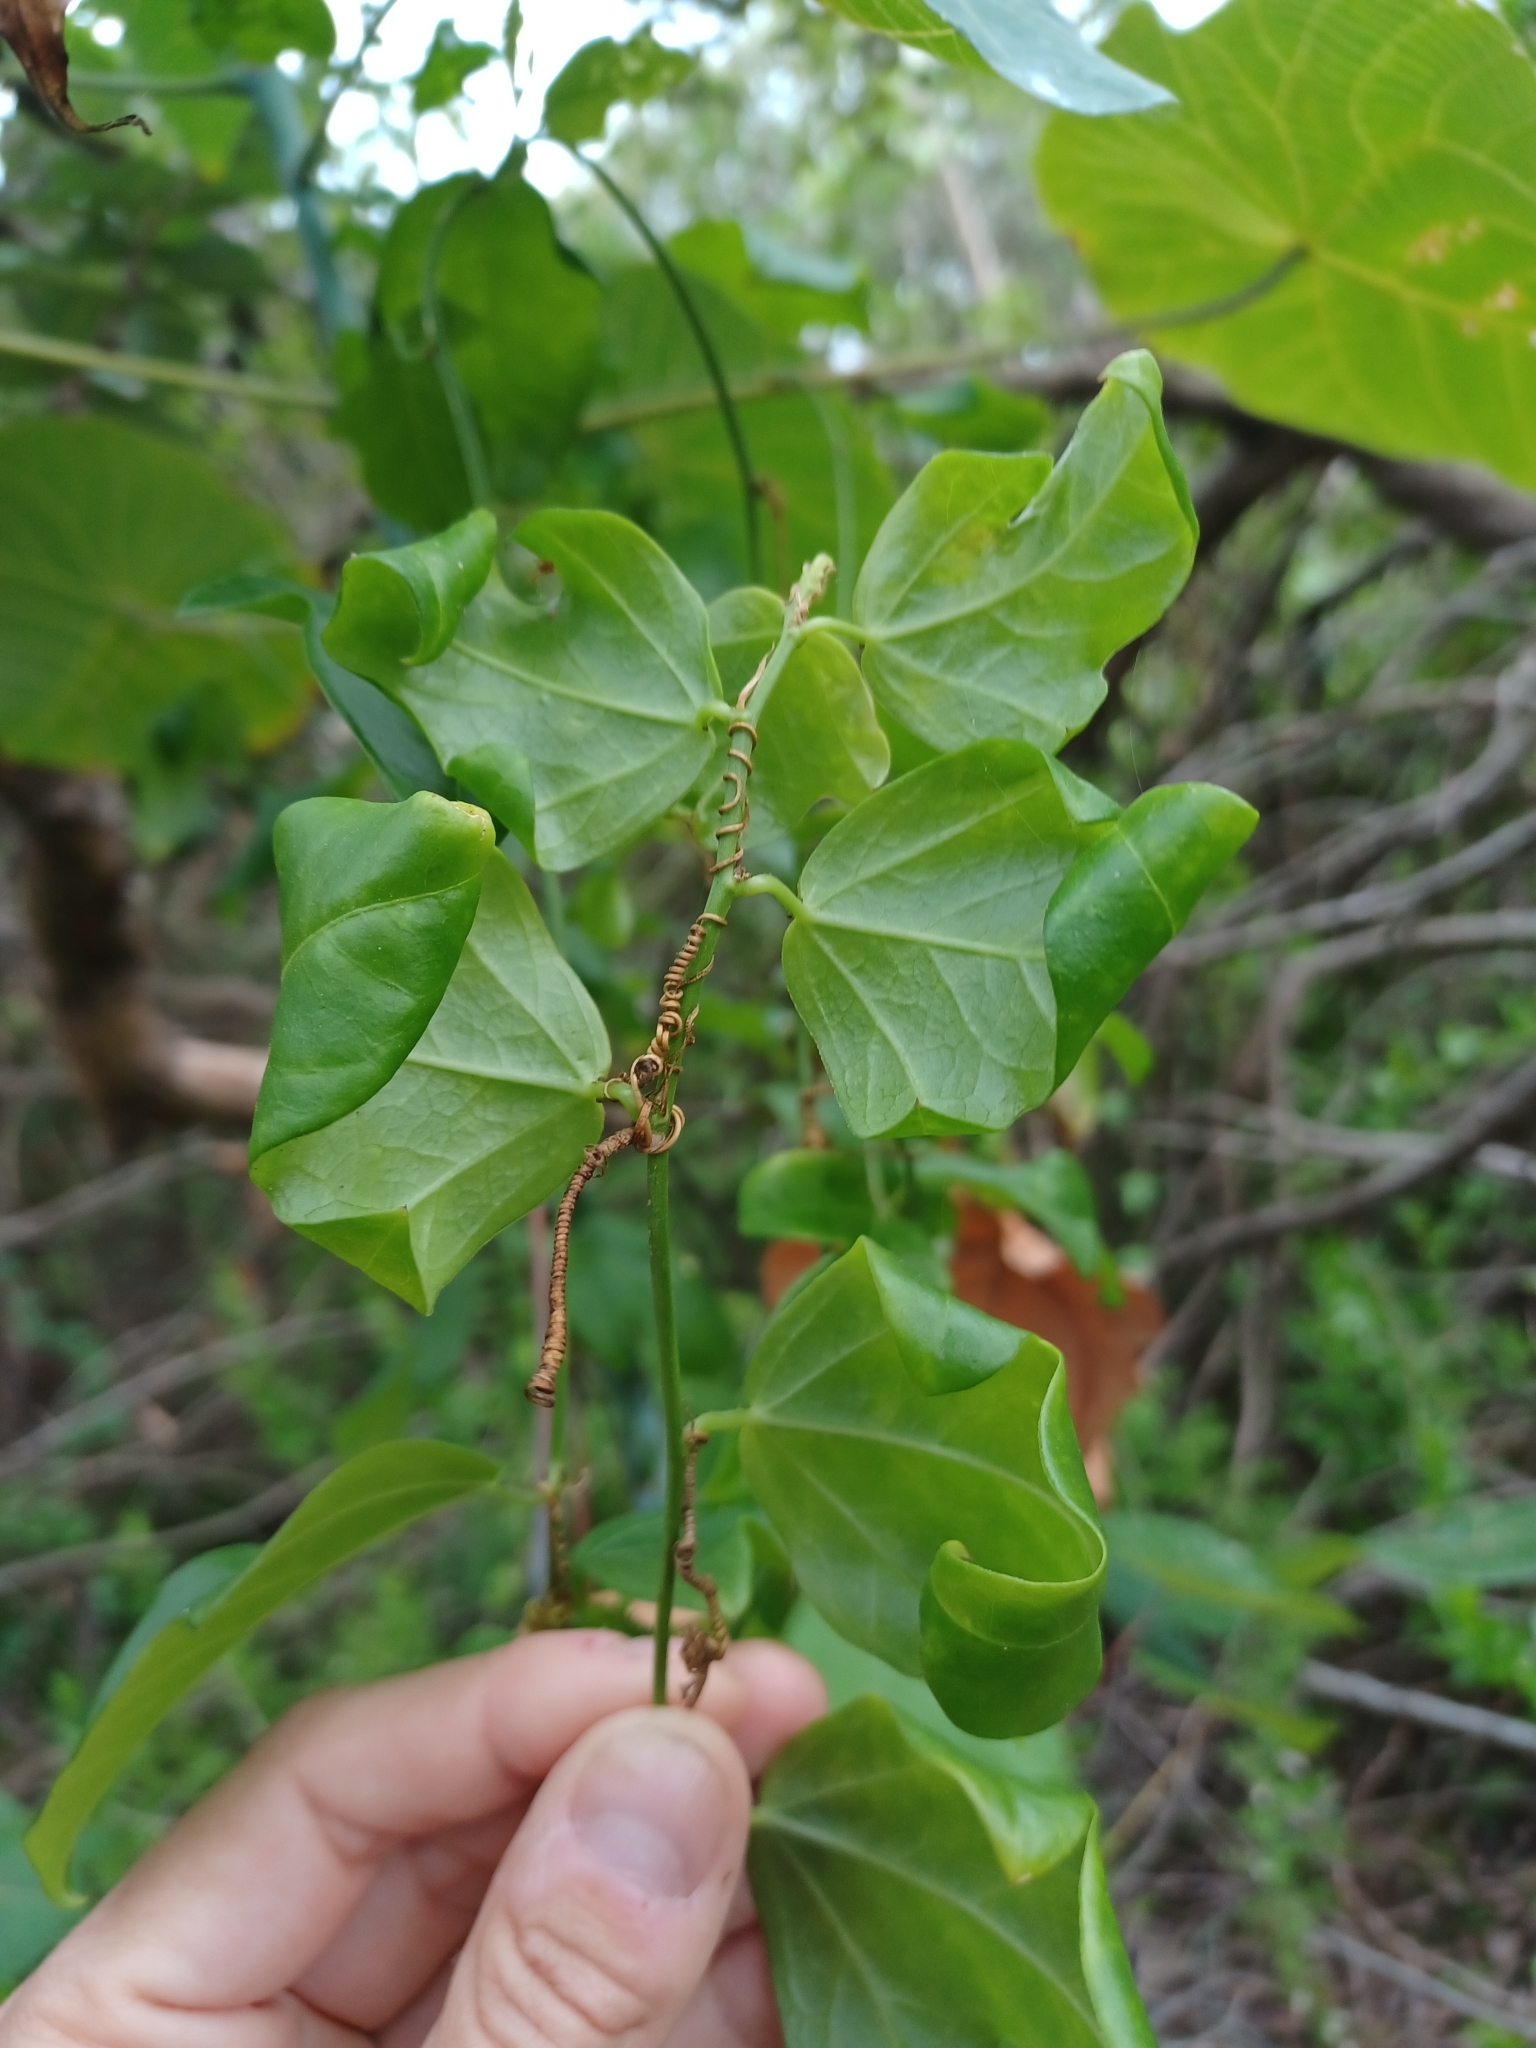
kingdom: Plantae
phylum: Tracheophyta
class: Magnoliopsida
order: Malpighiales
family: Passifloraceae
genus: Passiflora
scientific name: Passiflora pallida
